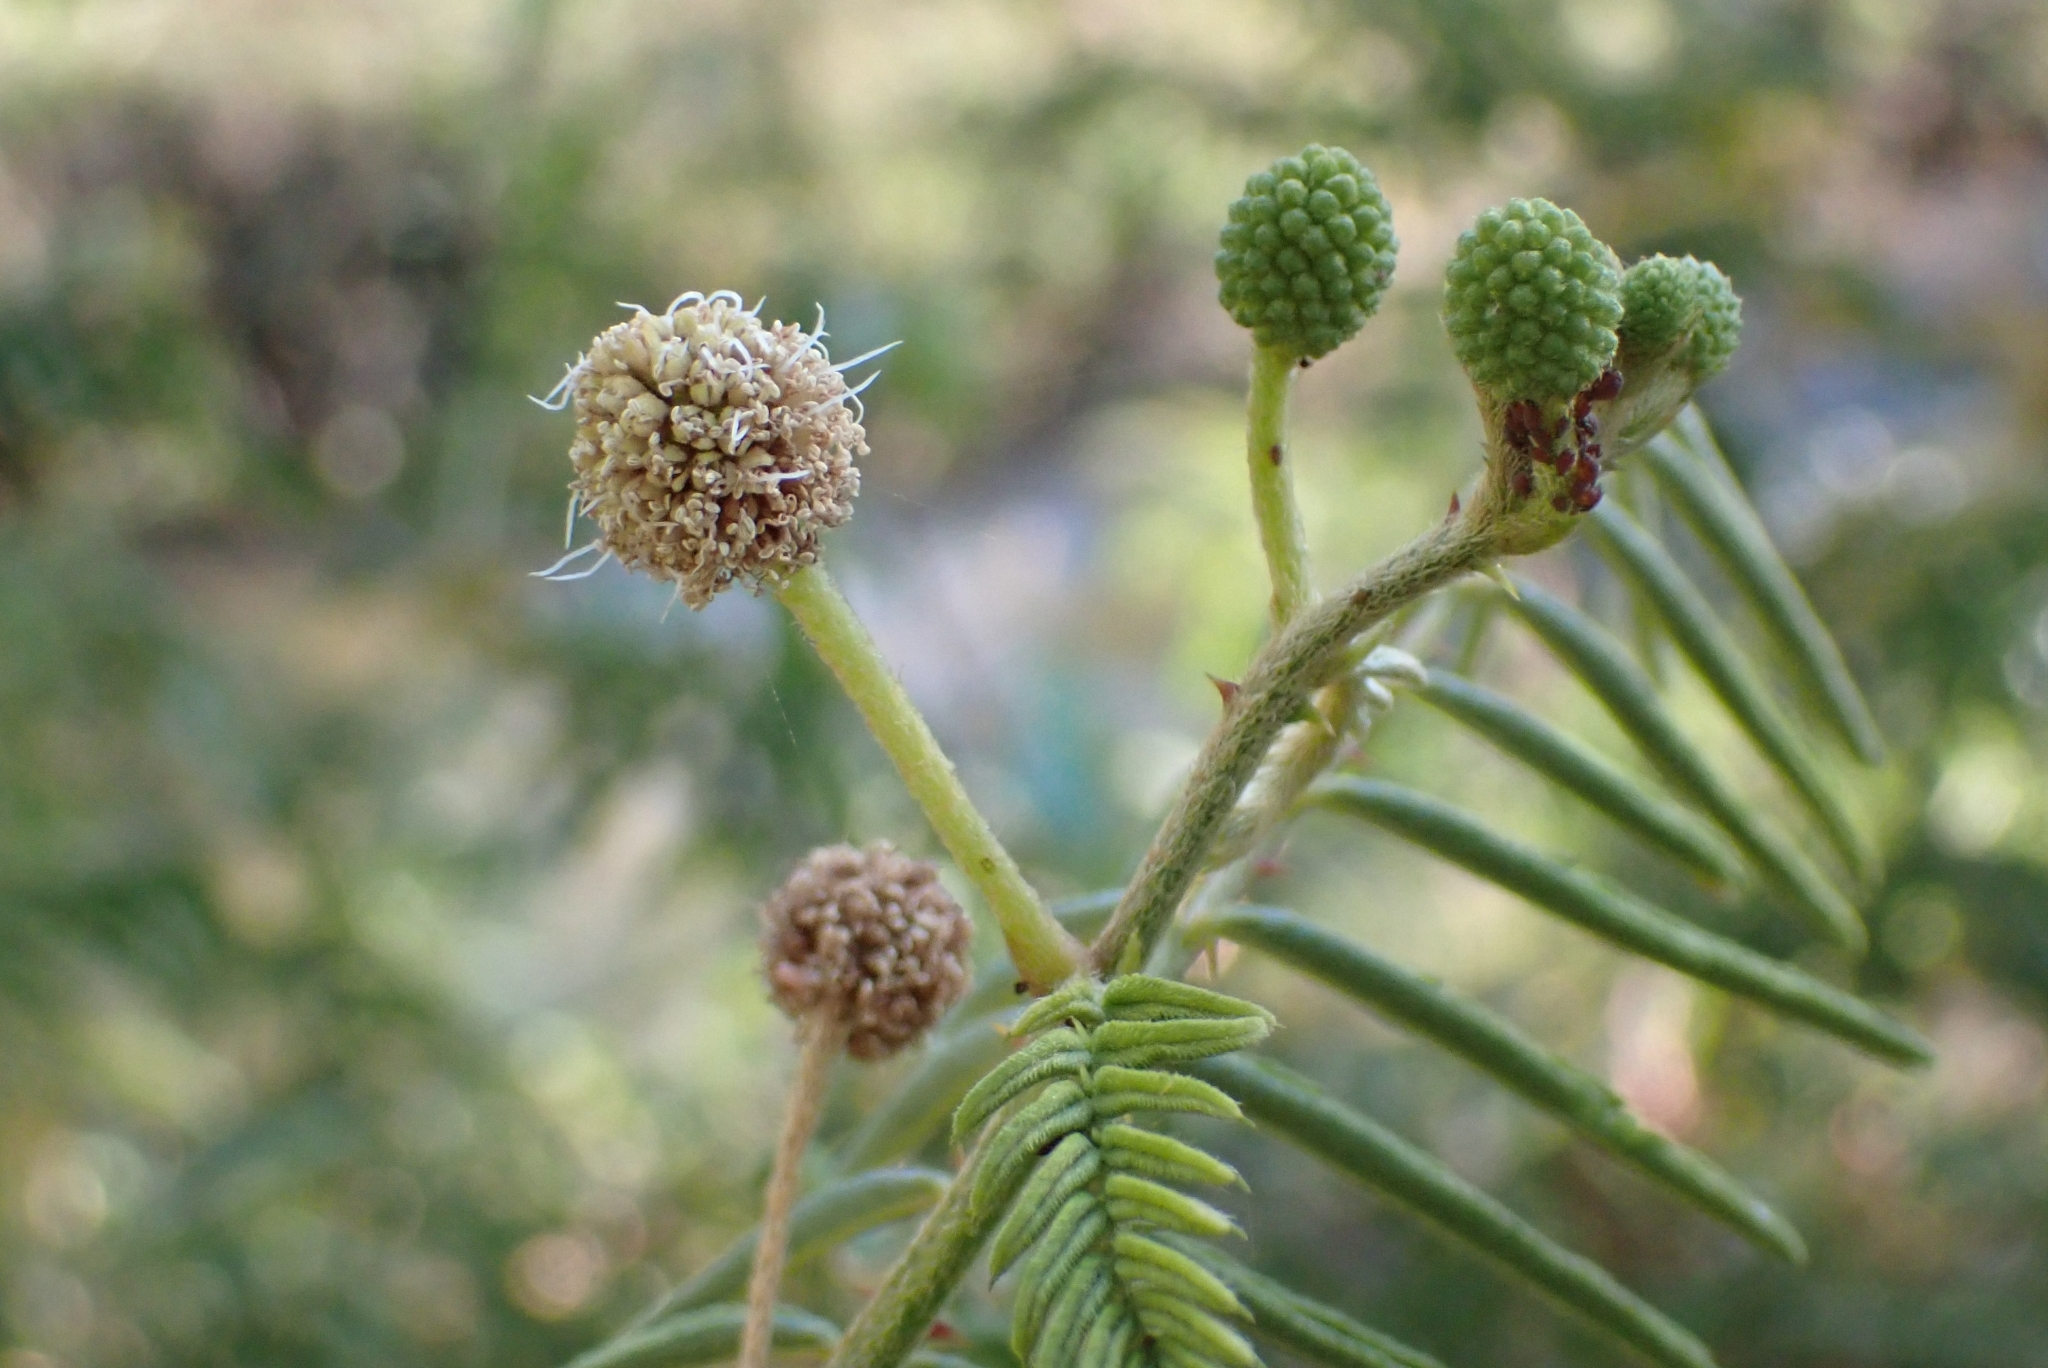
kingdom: Plantae
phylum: Tracheophyta
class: Magnoliopsida
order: Fabales
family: Fabaceae
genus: Mimosa
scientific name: Mimosa pigra
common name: Black mimosa
